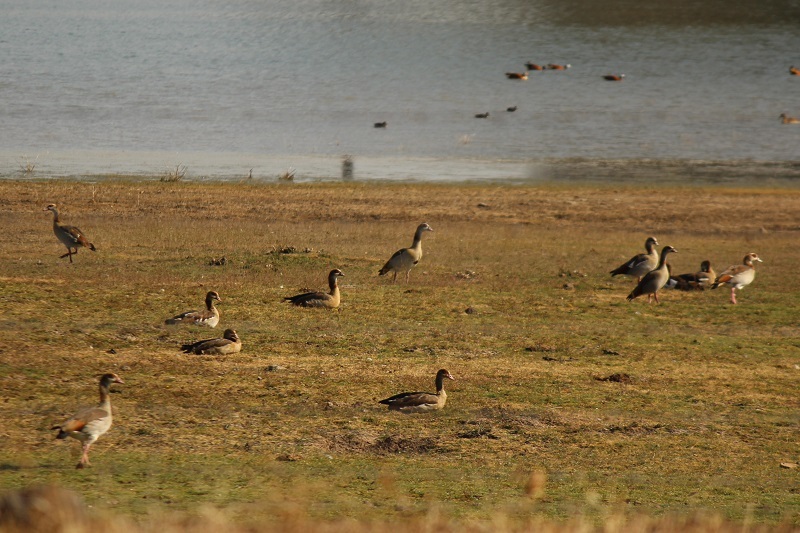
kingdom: Animalia
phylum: Chordata
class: Aves
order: Anseriformes
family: Anatidae
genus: Alopochen
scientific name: Alopochen aegyptiaca
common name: Egyptian goose
